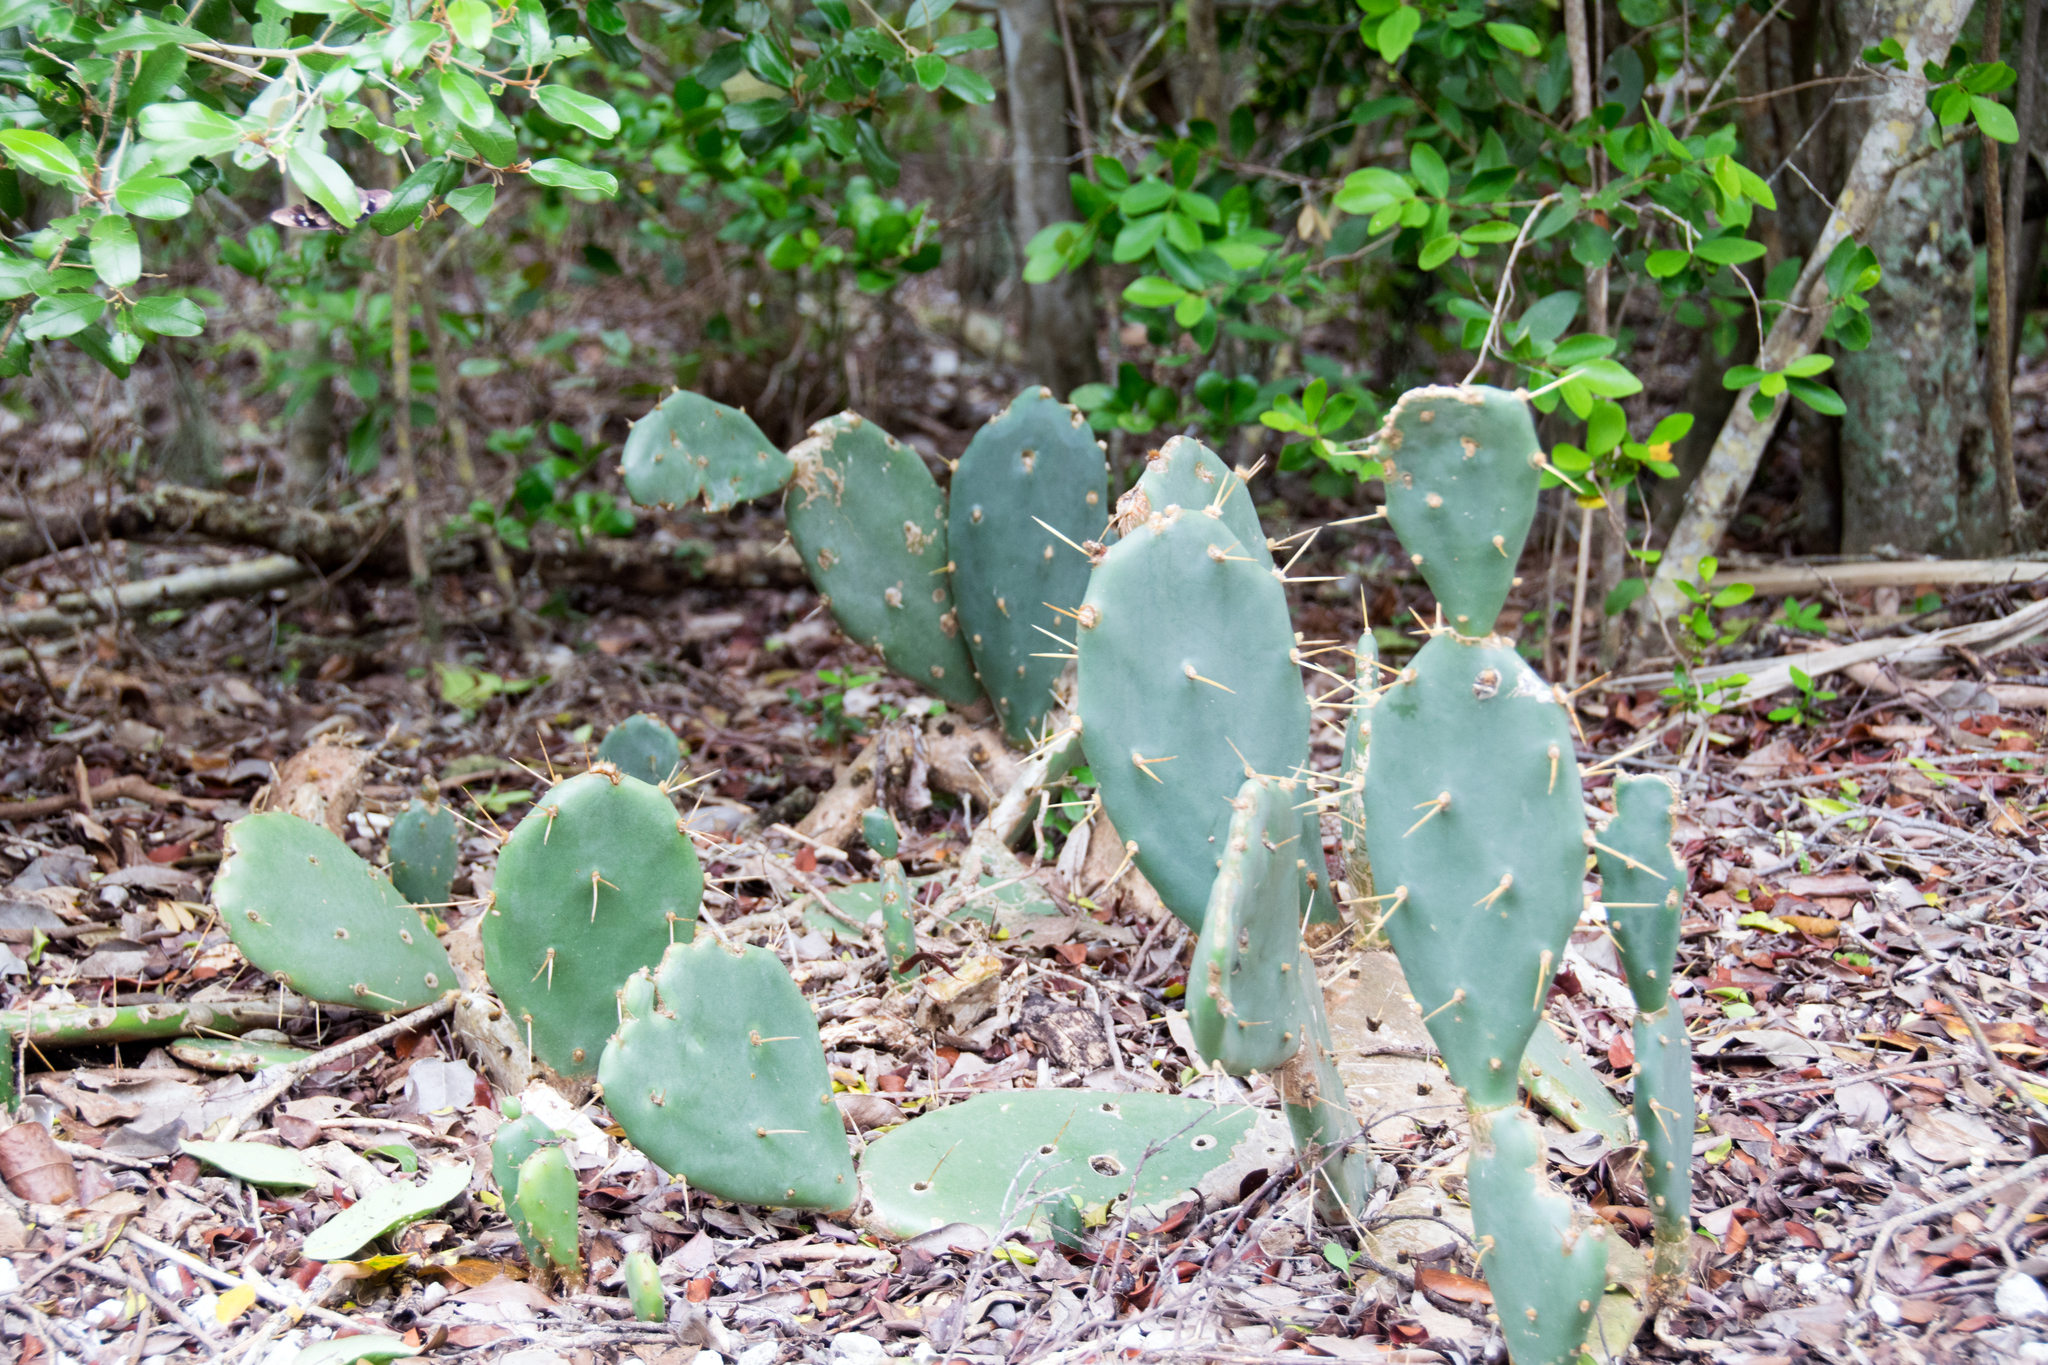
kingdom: Plantae
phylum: Tracheophyta
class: Magnoliopsida
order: Caryophyllales
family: Cactaceae
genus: Opuntia
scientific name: Opuntia stricta
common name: Erect pricklypear
